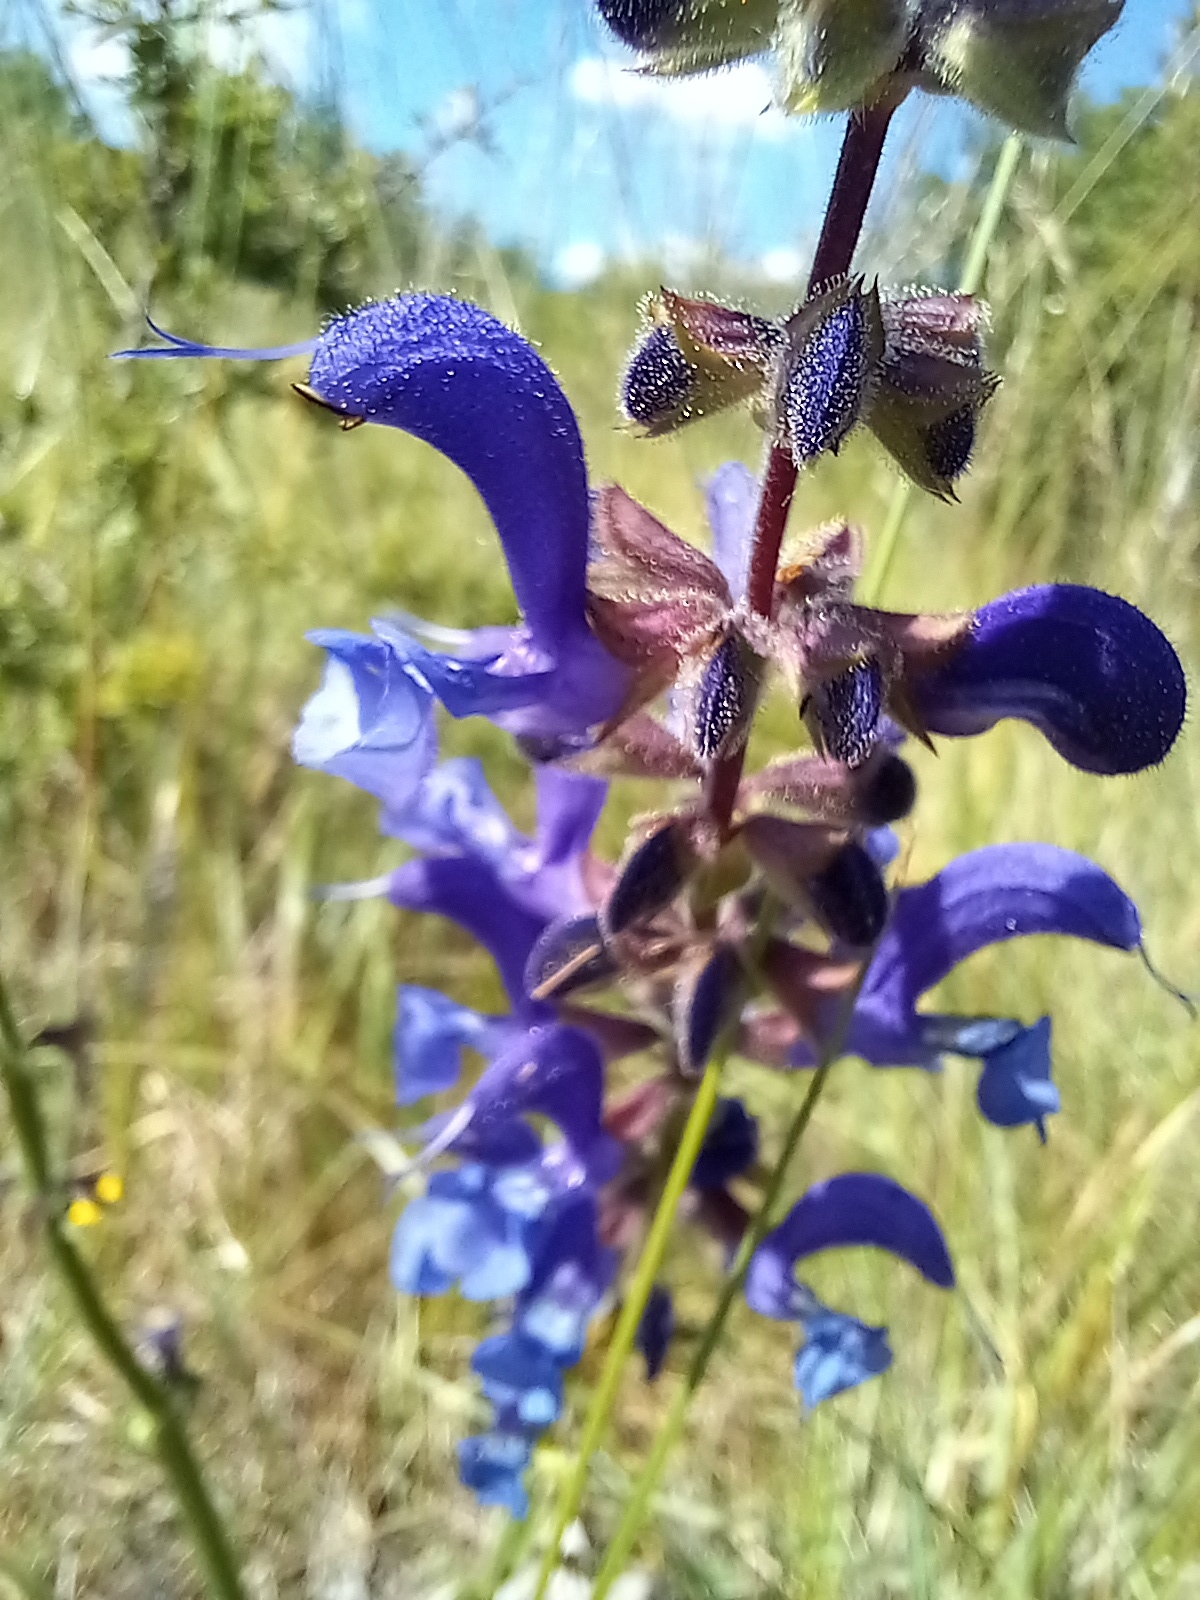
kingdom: Plantae
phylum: Tracheophyta
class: Magnoliopsida
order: Lamiales
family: Lamiaceae
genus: Salvia
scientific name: Salvia pratensis
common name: Meadow sage
